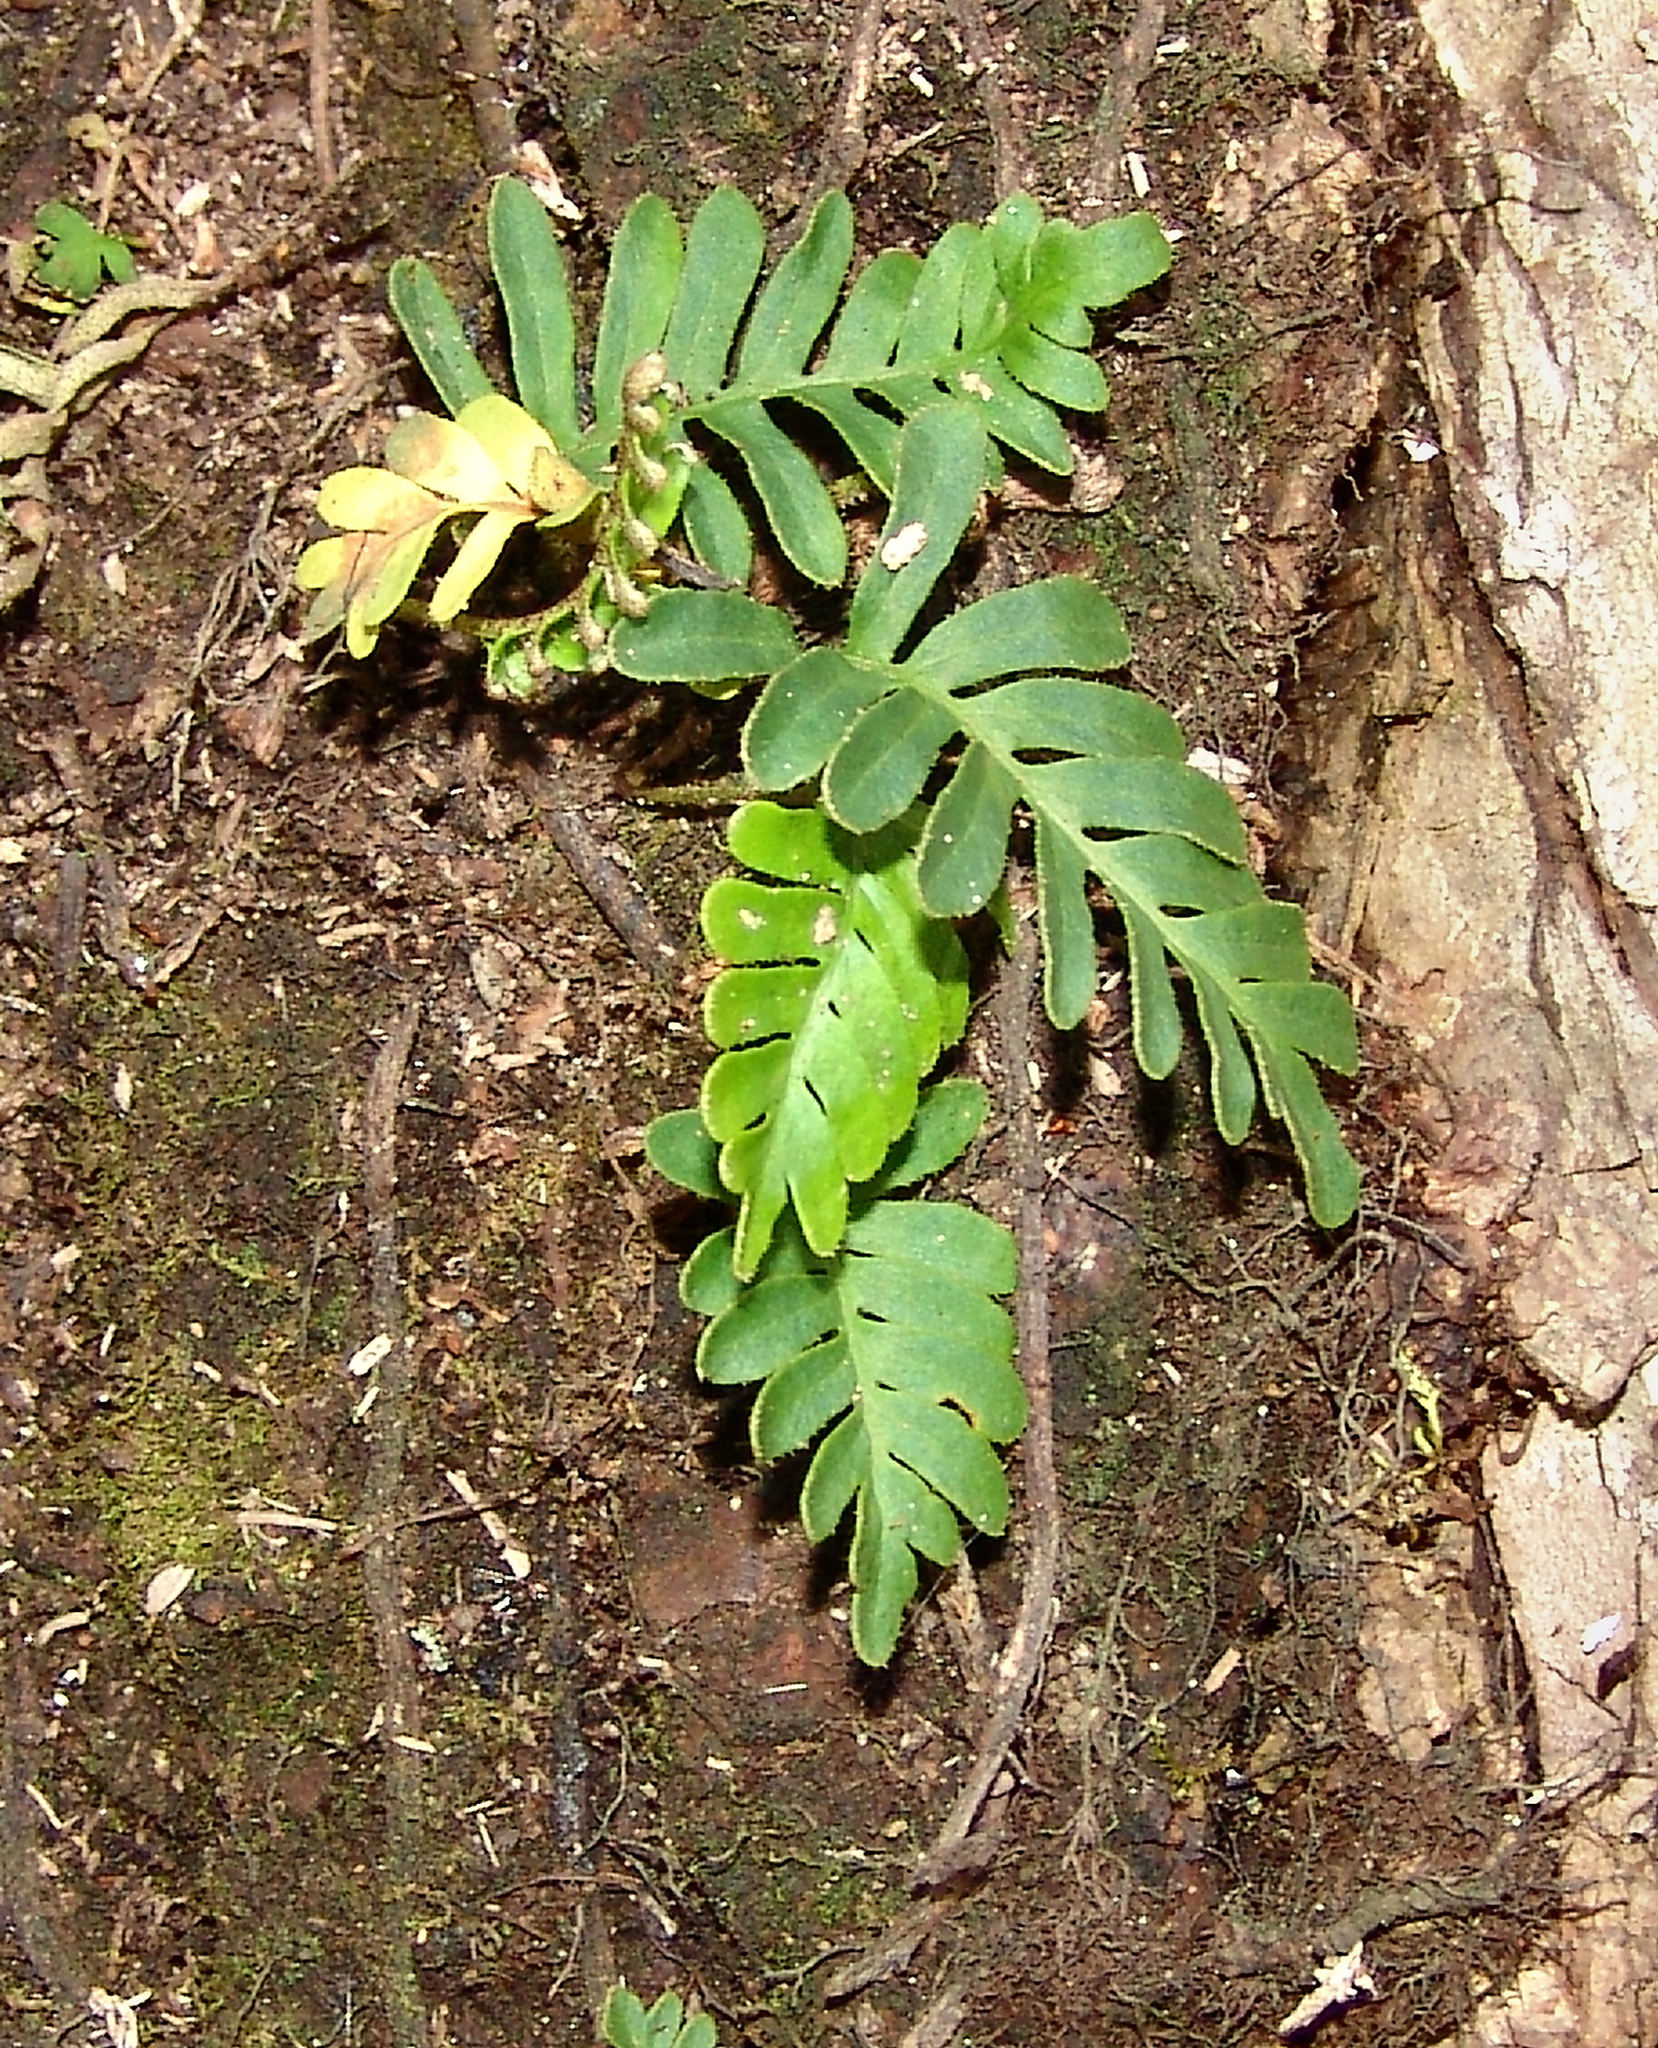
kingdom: Plantae
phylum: Tracheophyta
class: Polypodiopsida
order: Polypodiales
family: Polypodiaceae
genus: Pleopeltis
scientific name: Pleopeltis michauxiana
